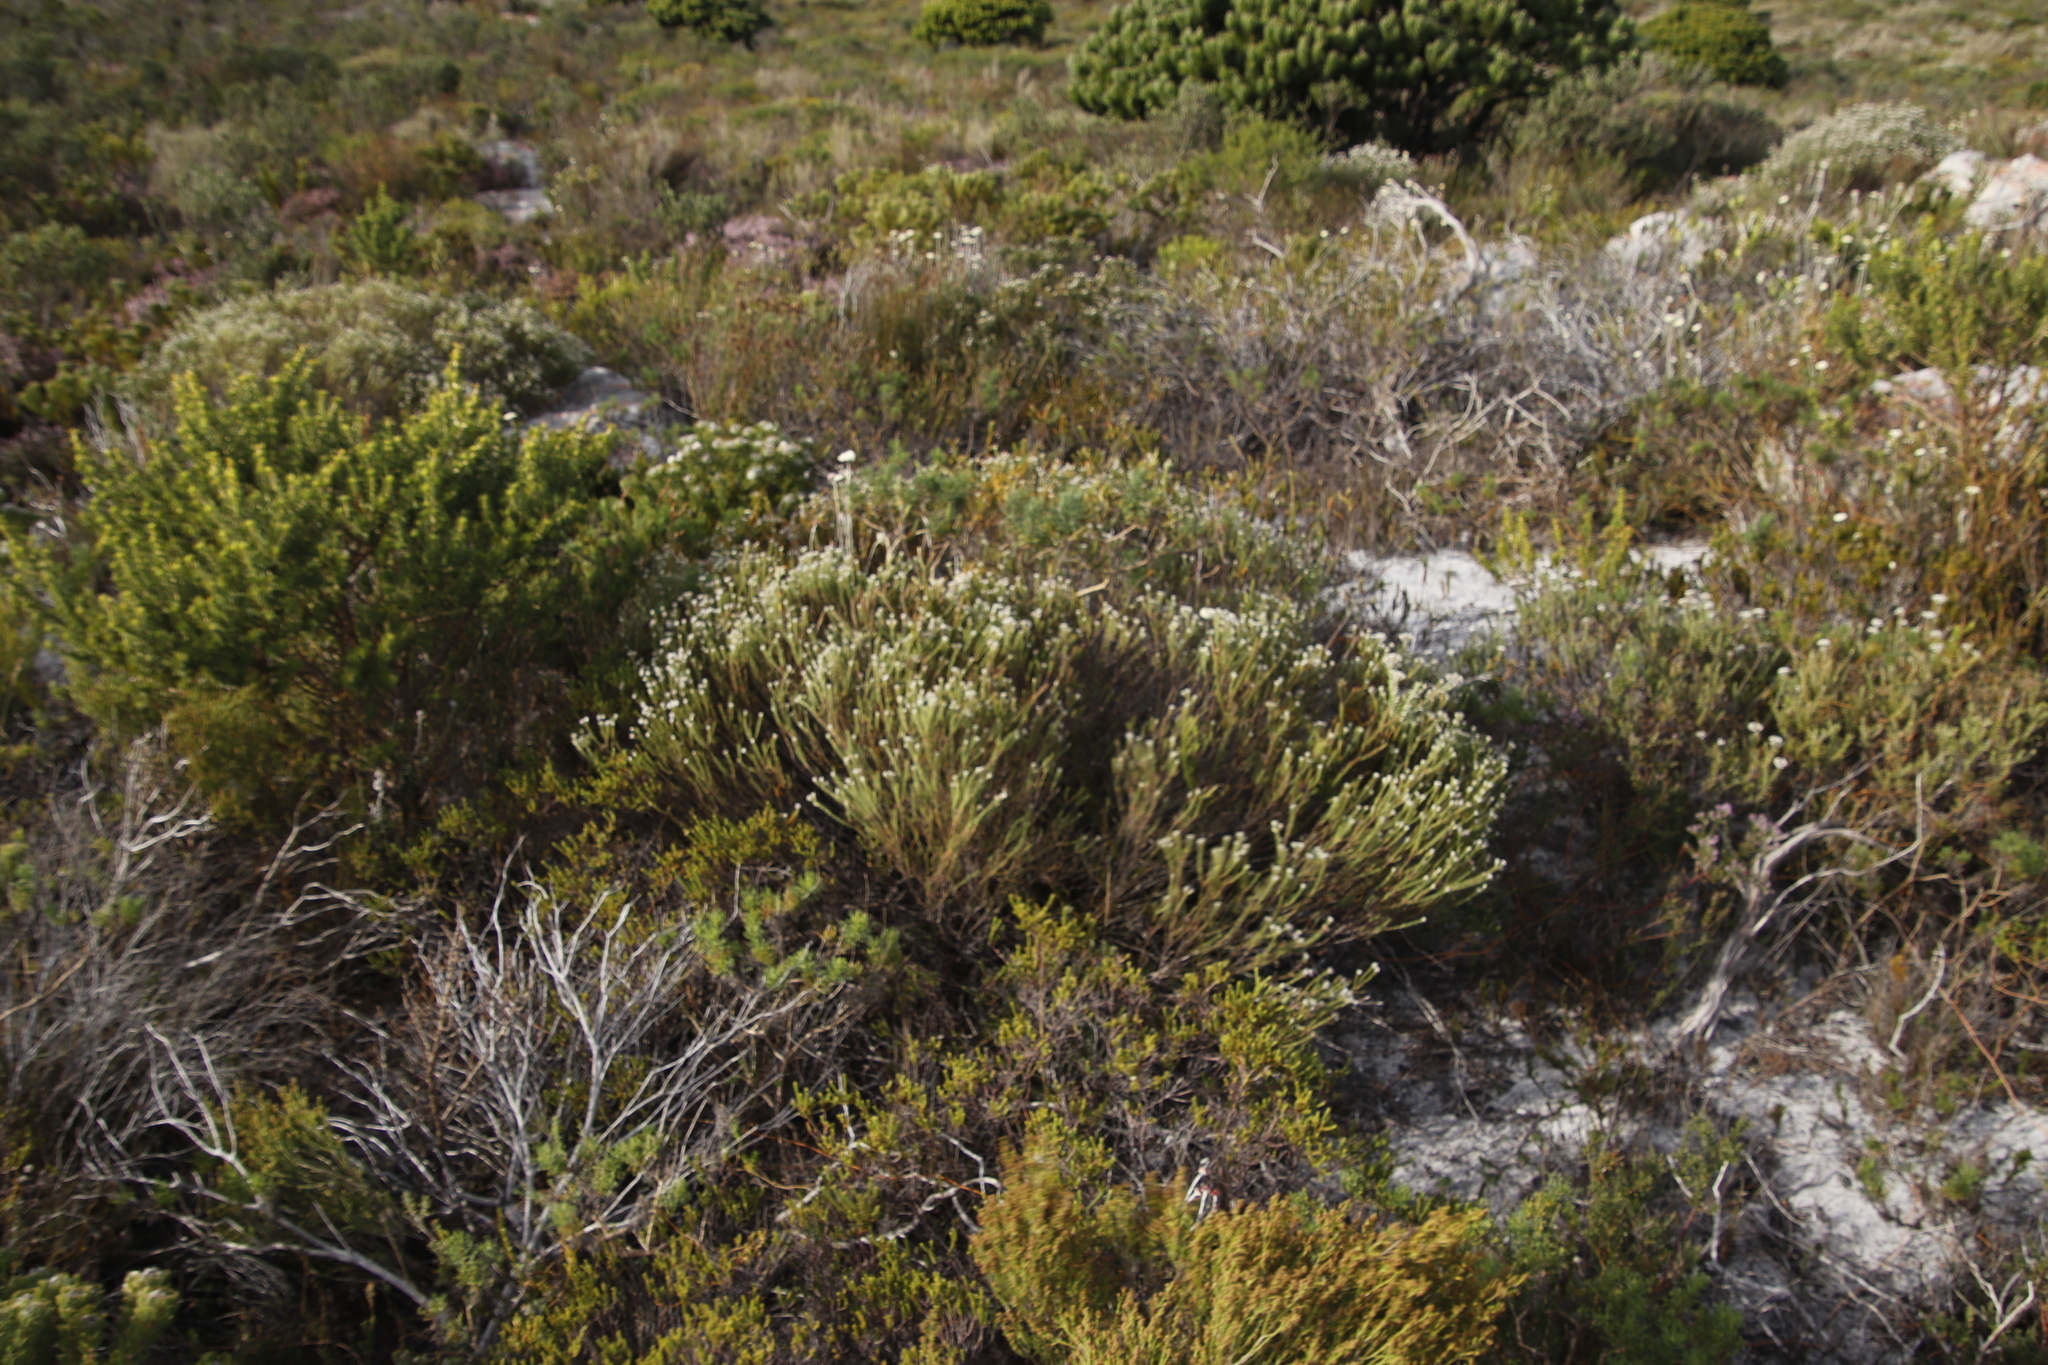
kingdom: Plantae
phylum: Tracheophyta
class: Magnoliopsida
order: Bruniales
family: Bruniaceae
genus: Staavia
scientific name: Staavia radiata
